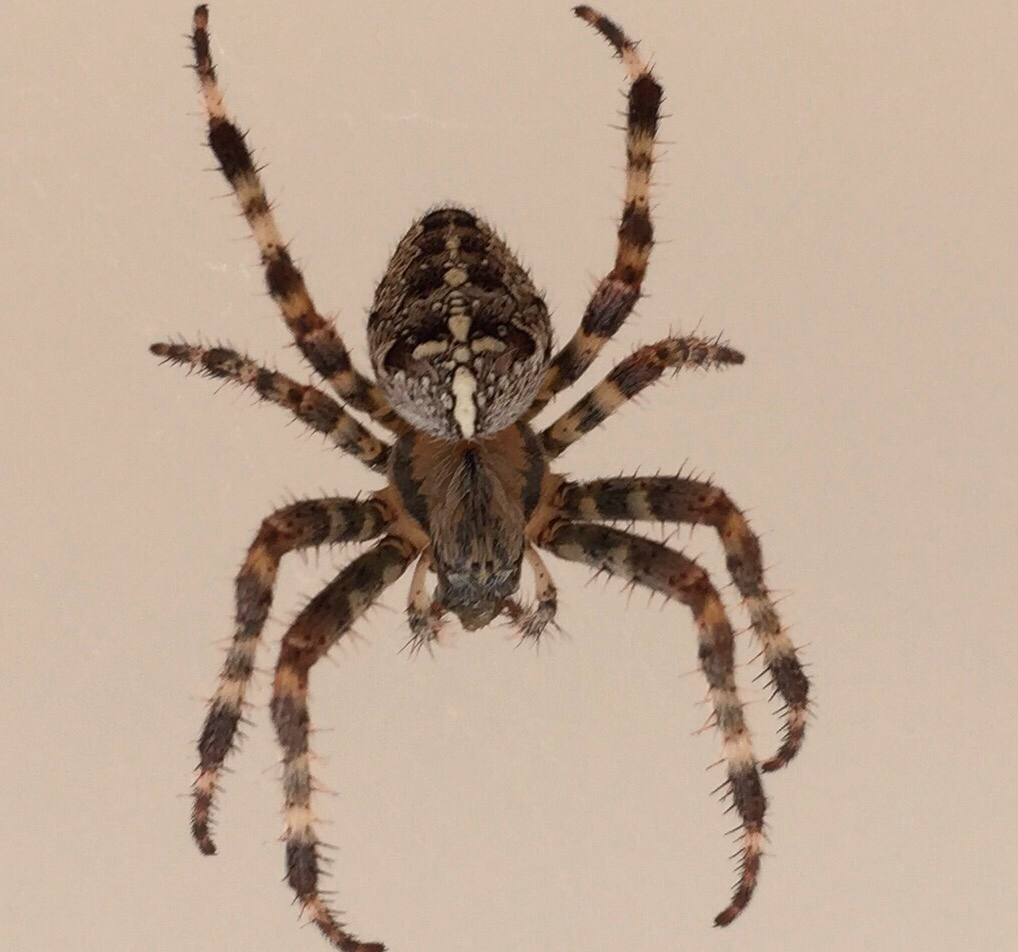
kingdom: Animalia
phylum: Arthropoda
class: Arachnida
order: Araneae
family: Araneidae
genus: Araneus
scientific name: Araneus diadematus
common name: Cross orbweaver
